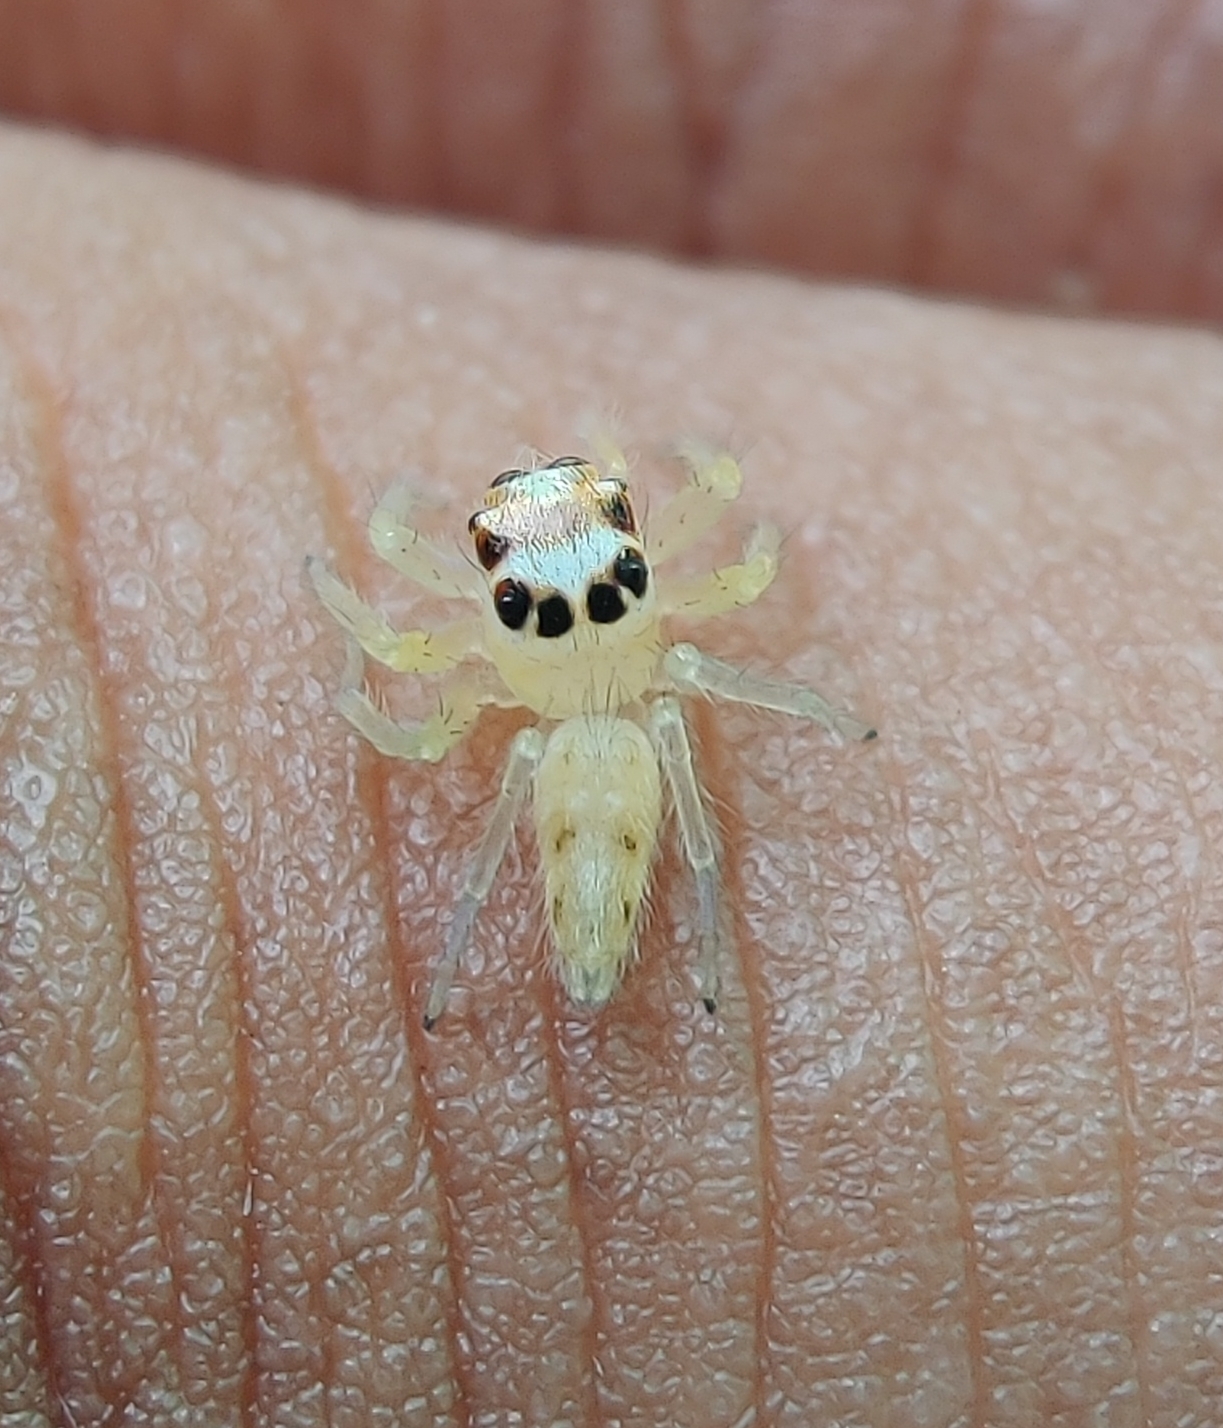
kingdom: Animalia
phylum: Arthropoda
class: Arachnida
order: Araneae
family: Salticidae
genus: Telamonia
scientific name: Telamonia dimidiata
